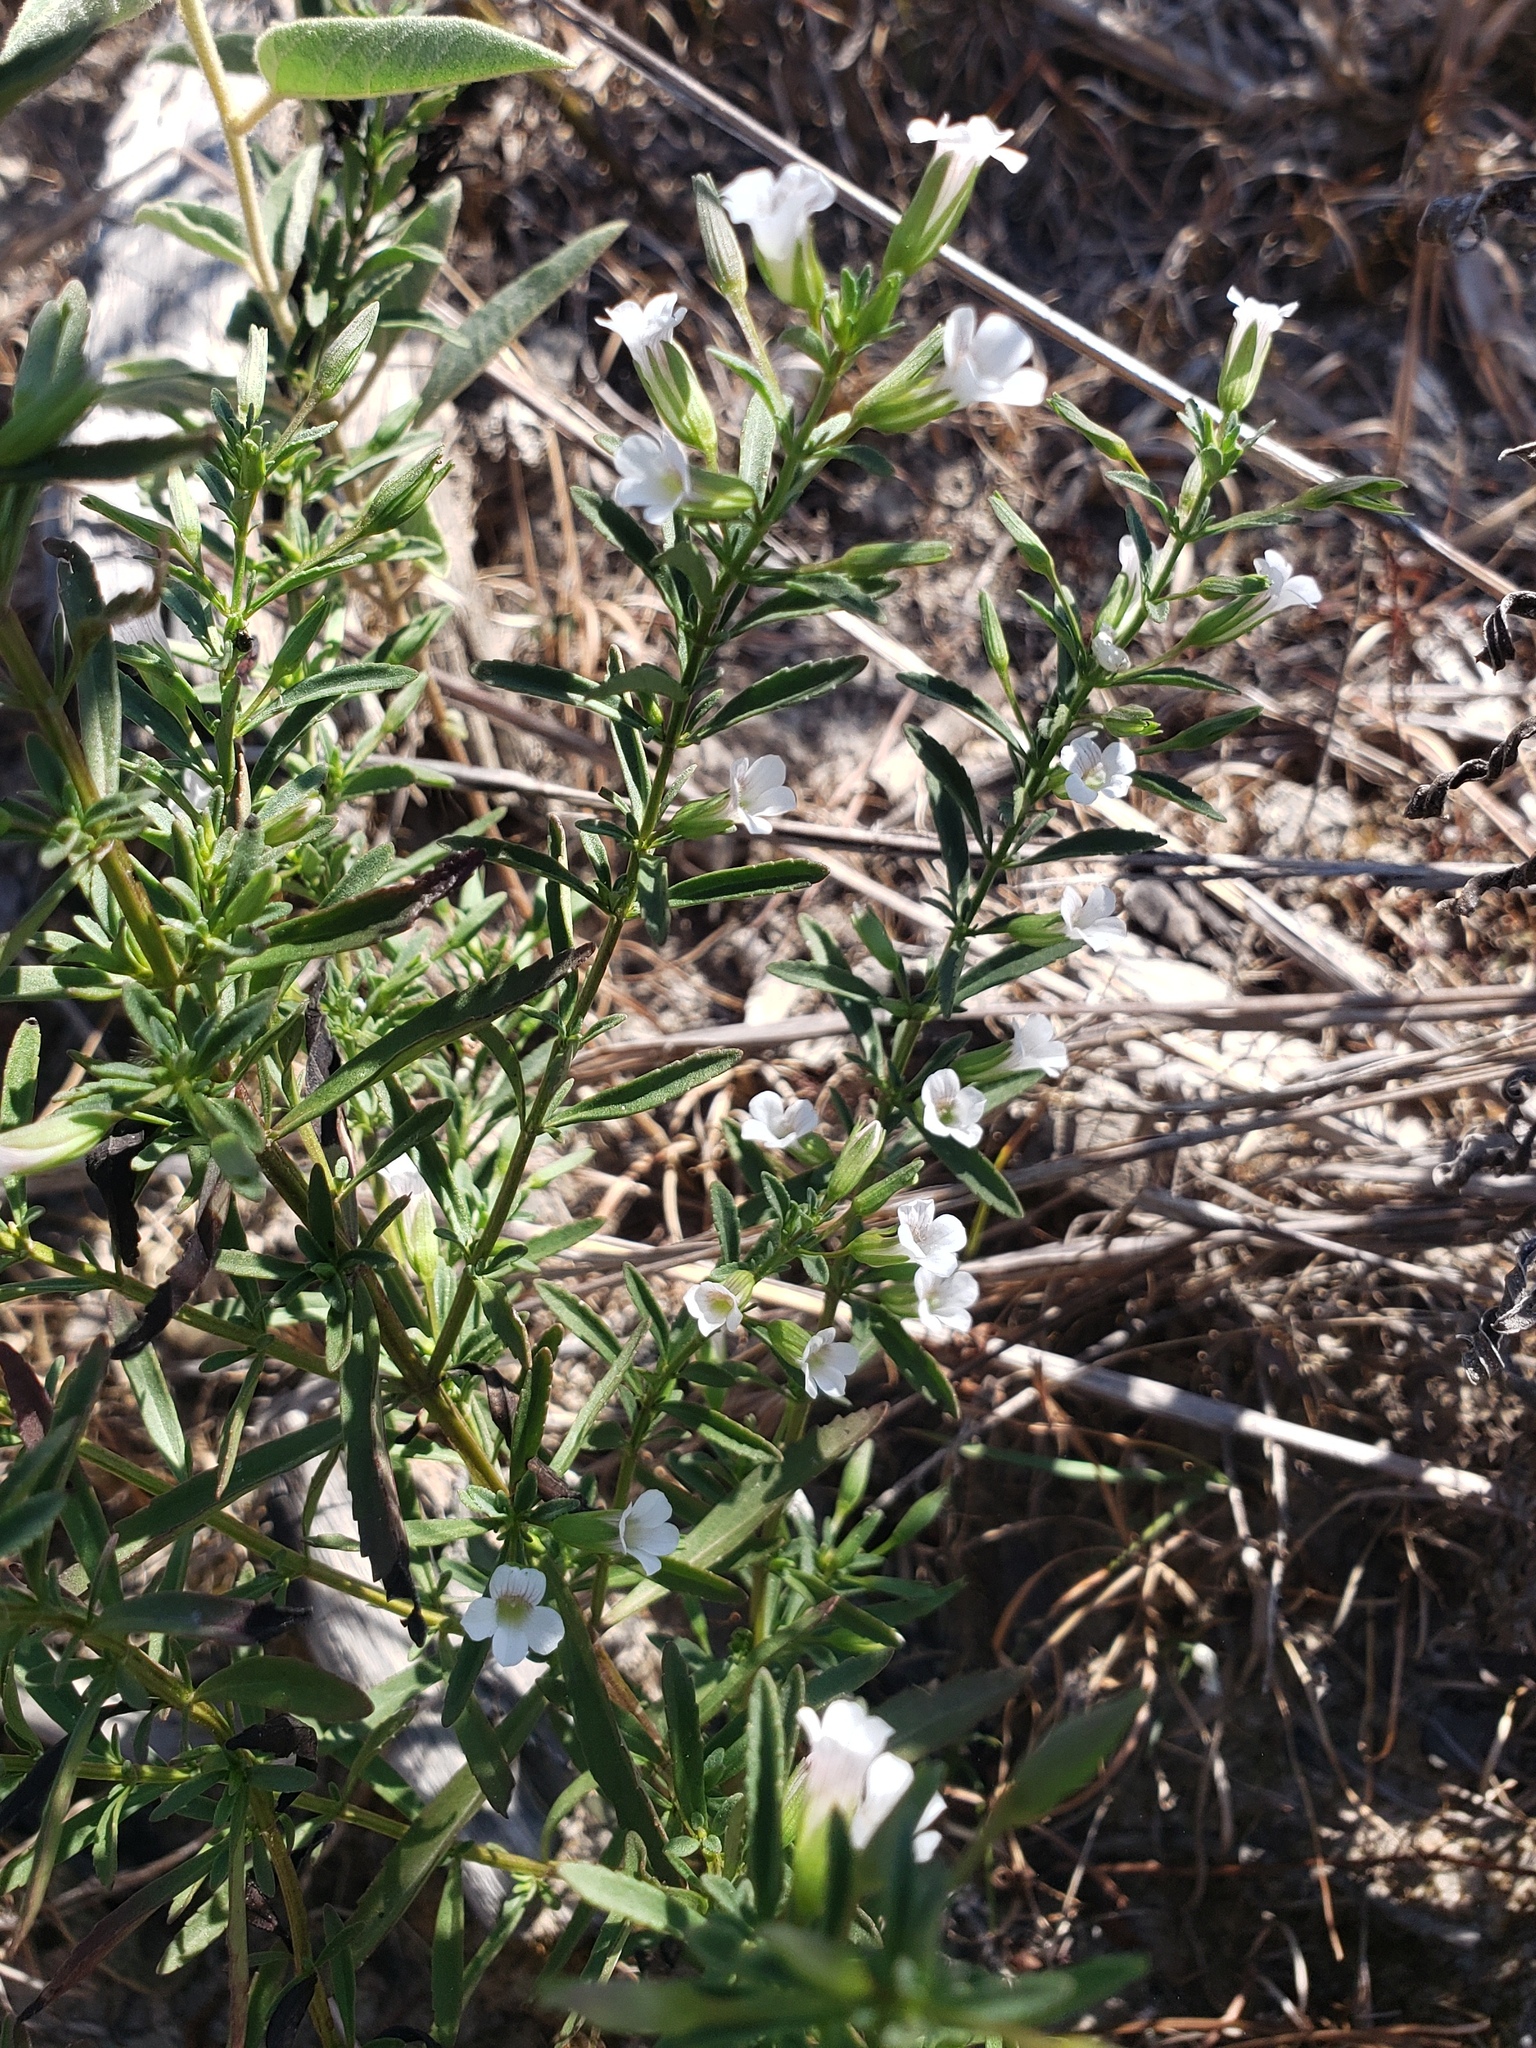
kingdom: Plantae
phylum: Tracheophyta
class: Magnoliopsida
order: Lamiales
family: Plantaginaceae
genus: Mecardonia
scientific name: Mecardonia acuminata
